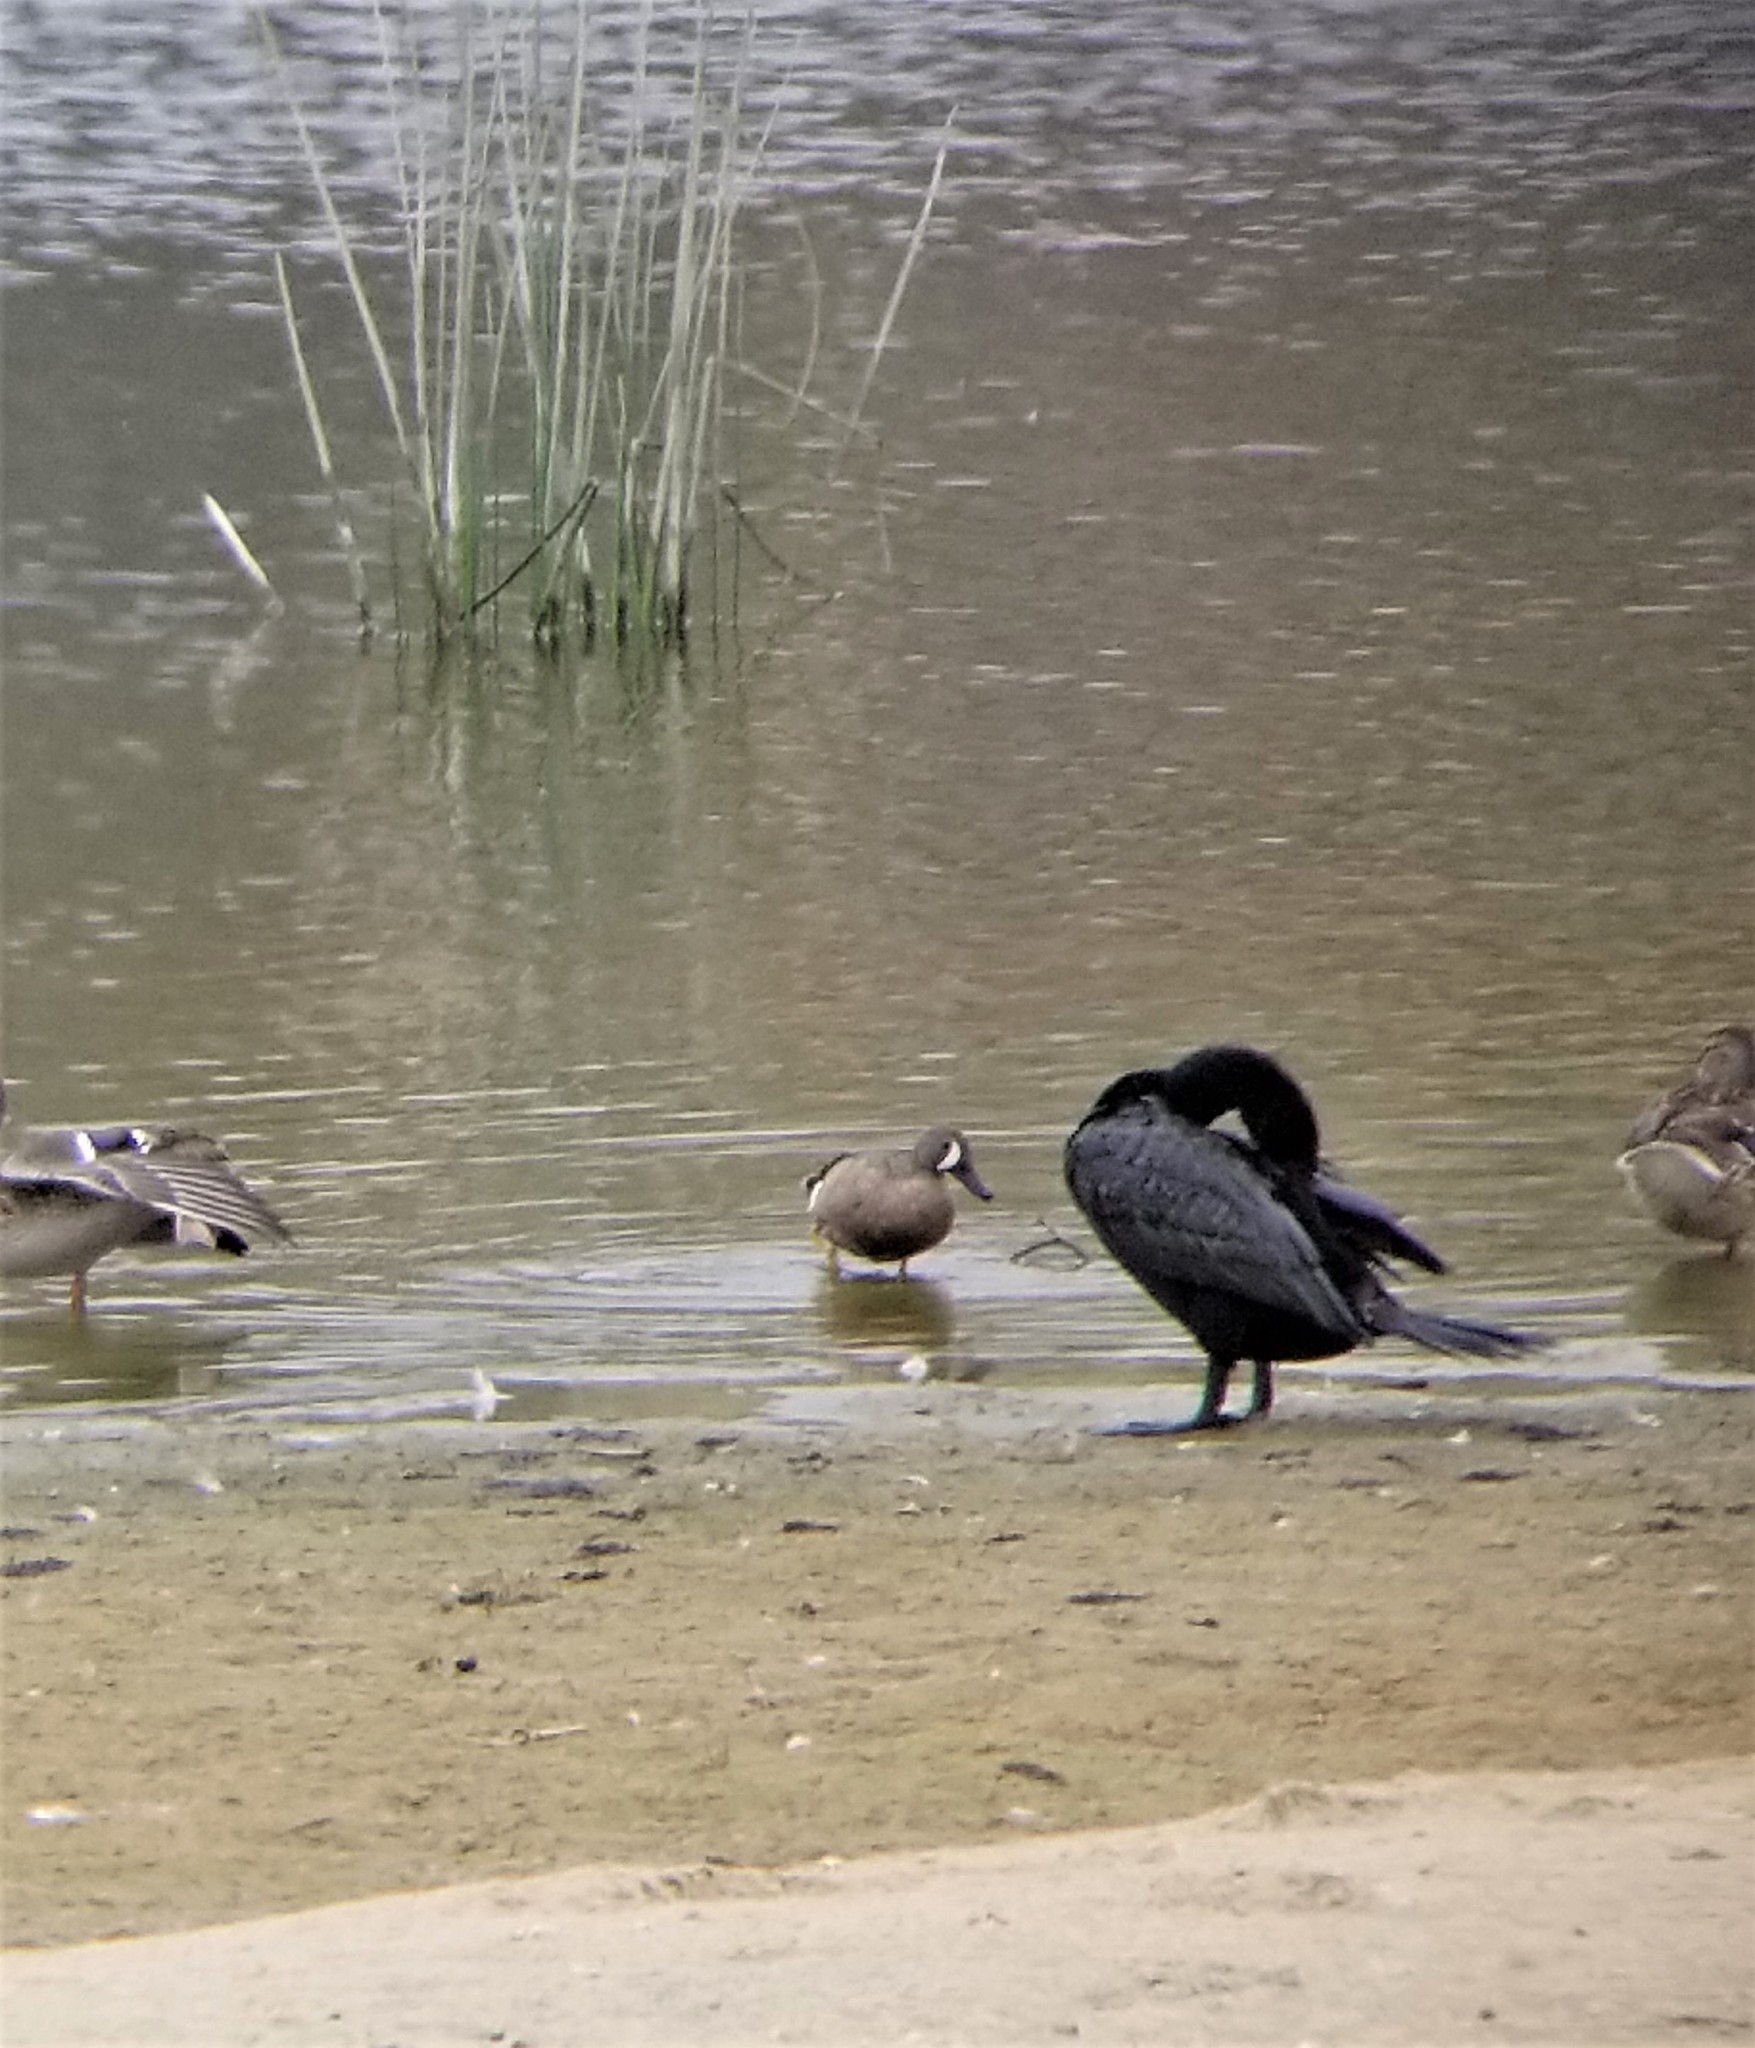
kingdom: Animalia
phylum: Chordata
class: Aves
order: Anseriformes
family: Anatidae
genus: Spatula
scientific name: Spatula discors
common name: Blue-winged teal
